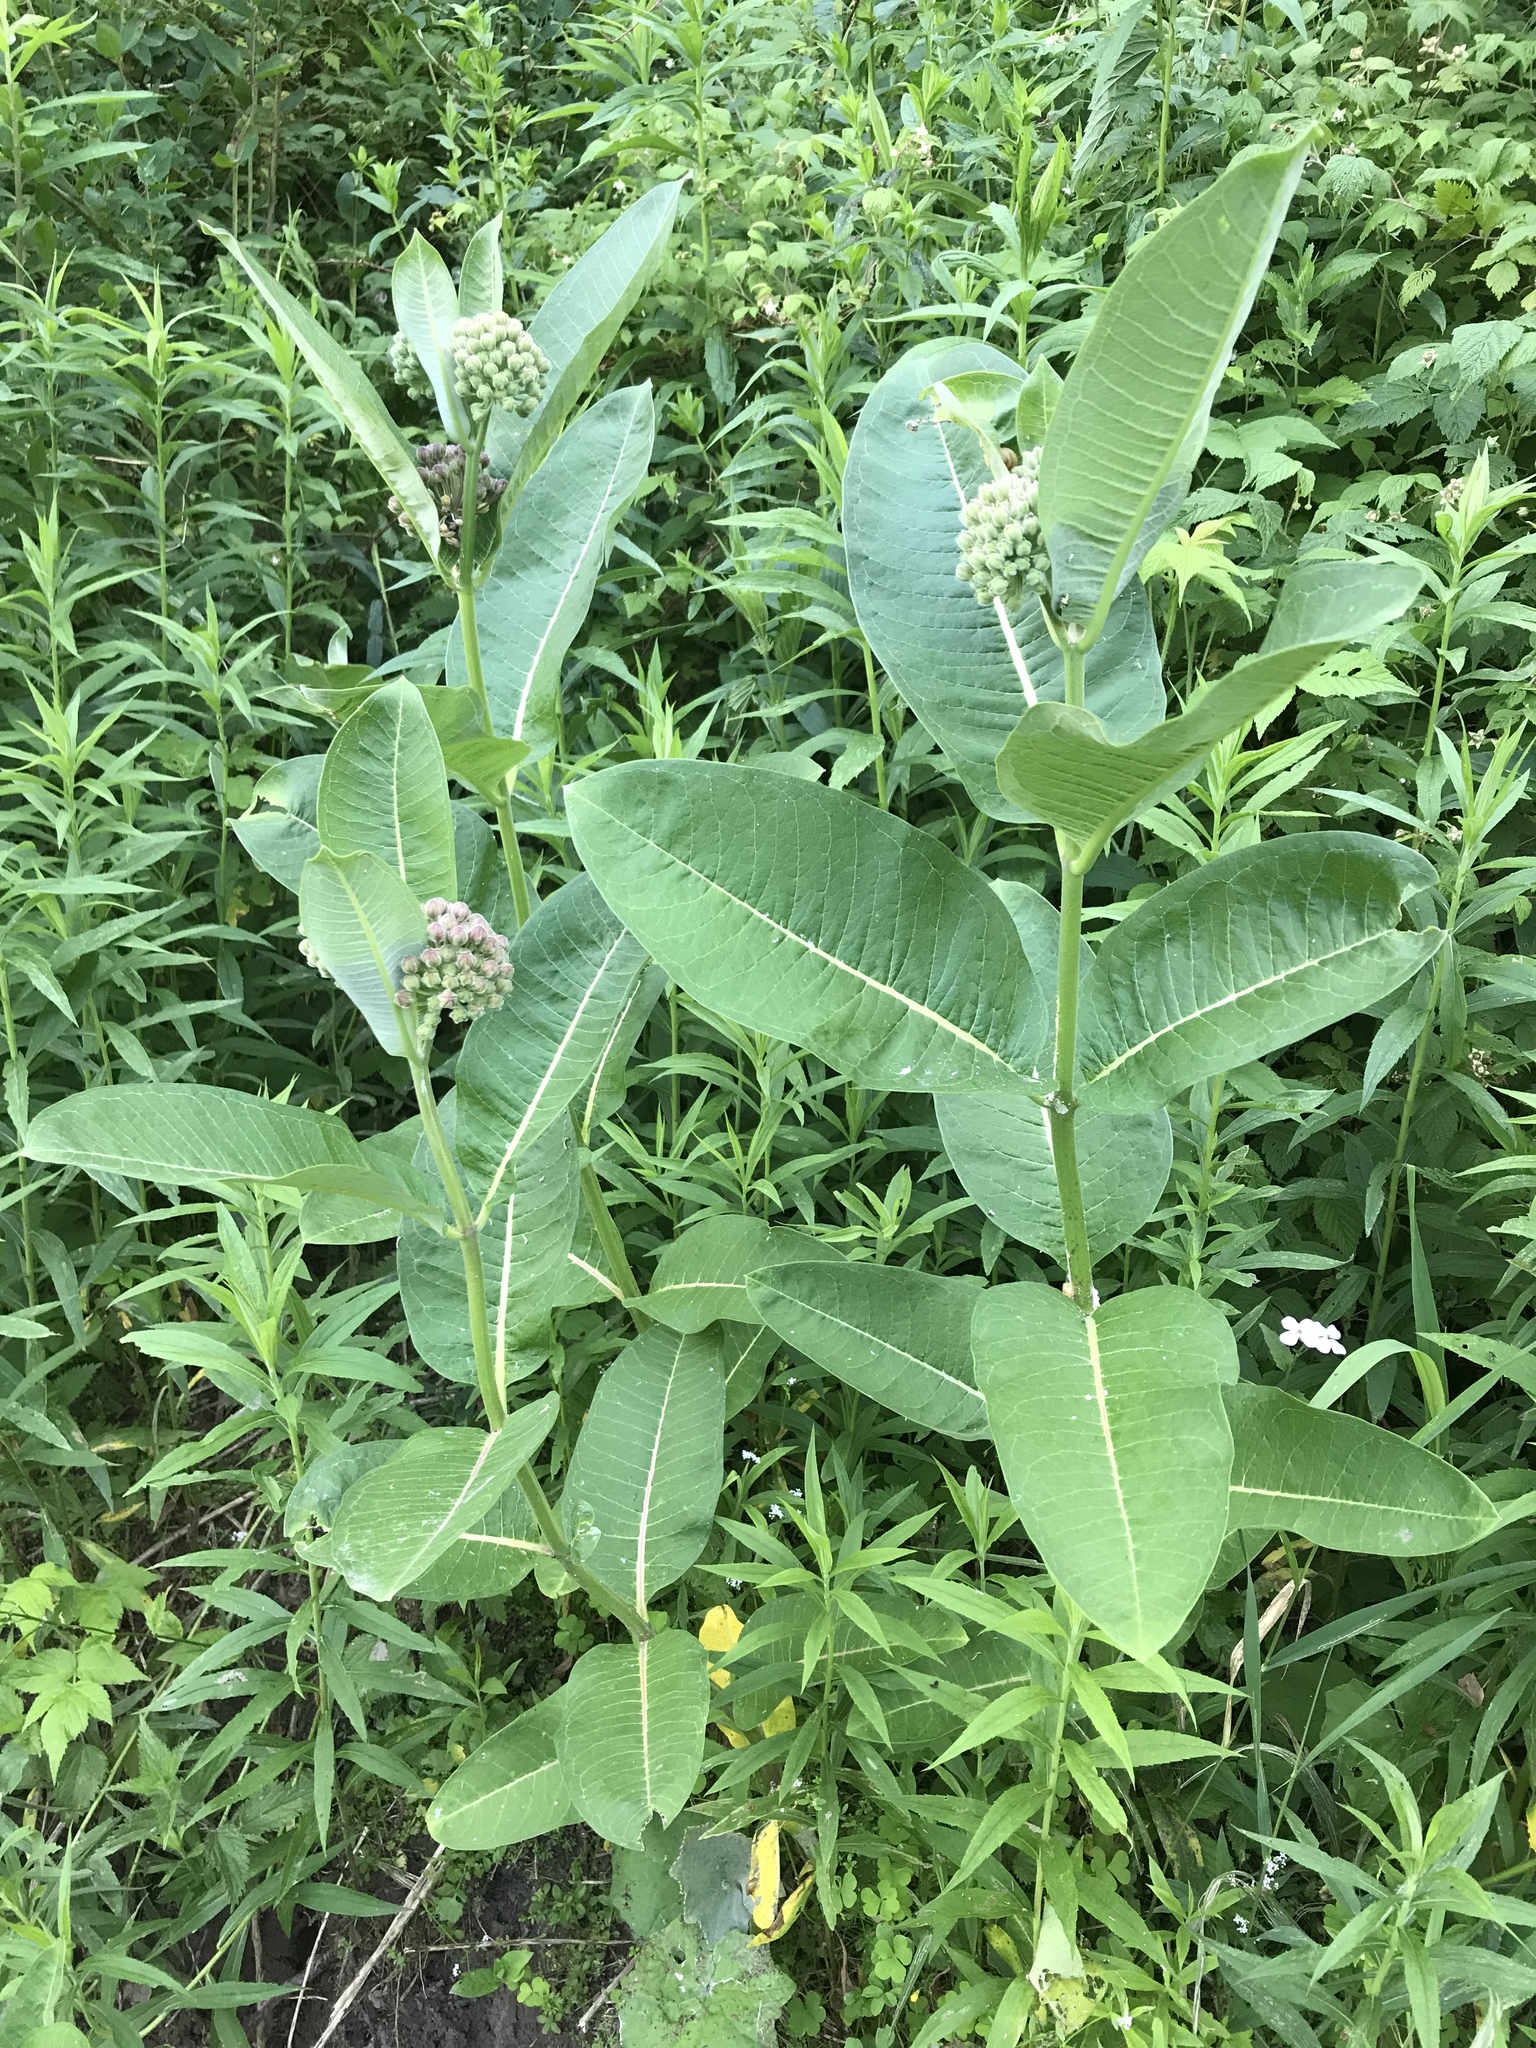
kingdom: Plantae
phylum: Tracheophyta
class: Magnoliopsida
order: Gentianales
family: Apocynaceae
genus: Asclepias
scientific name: Asclepias syriaca
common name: Common milkweed
